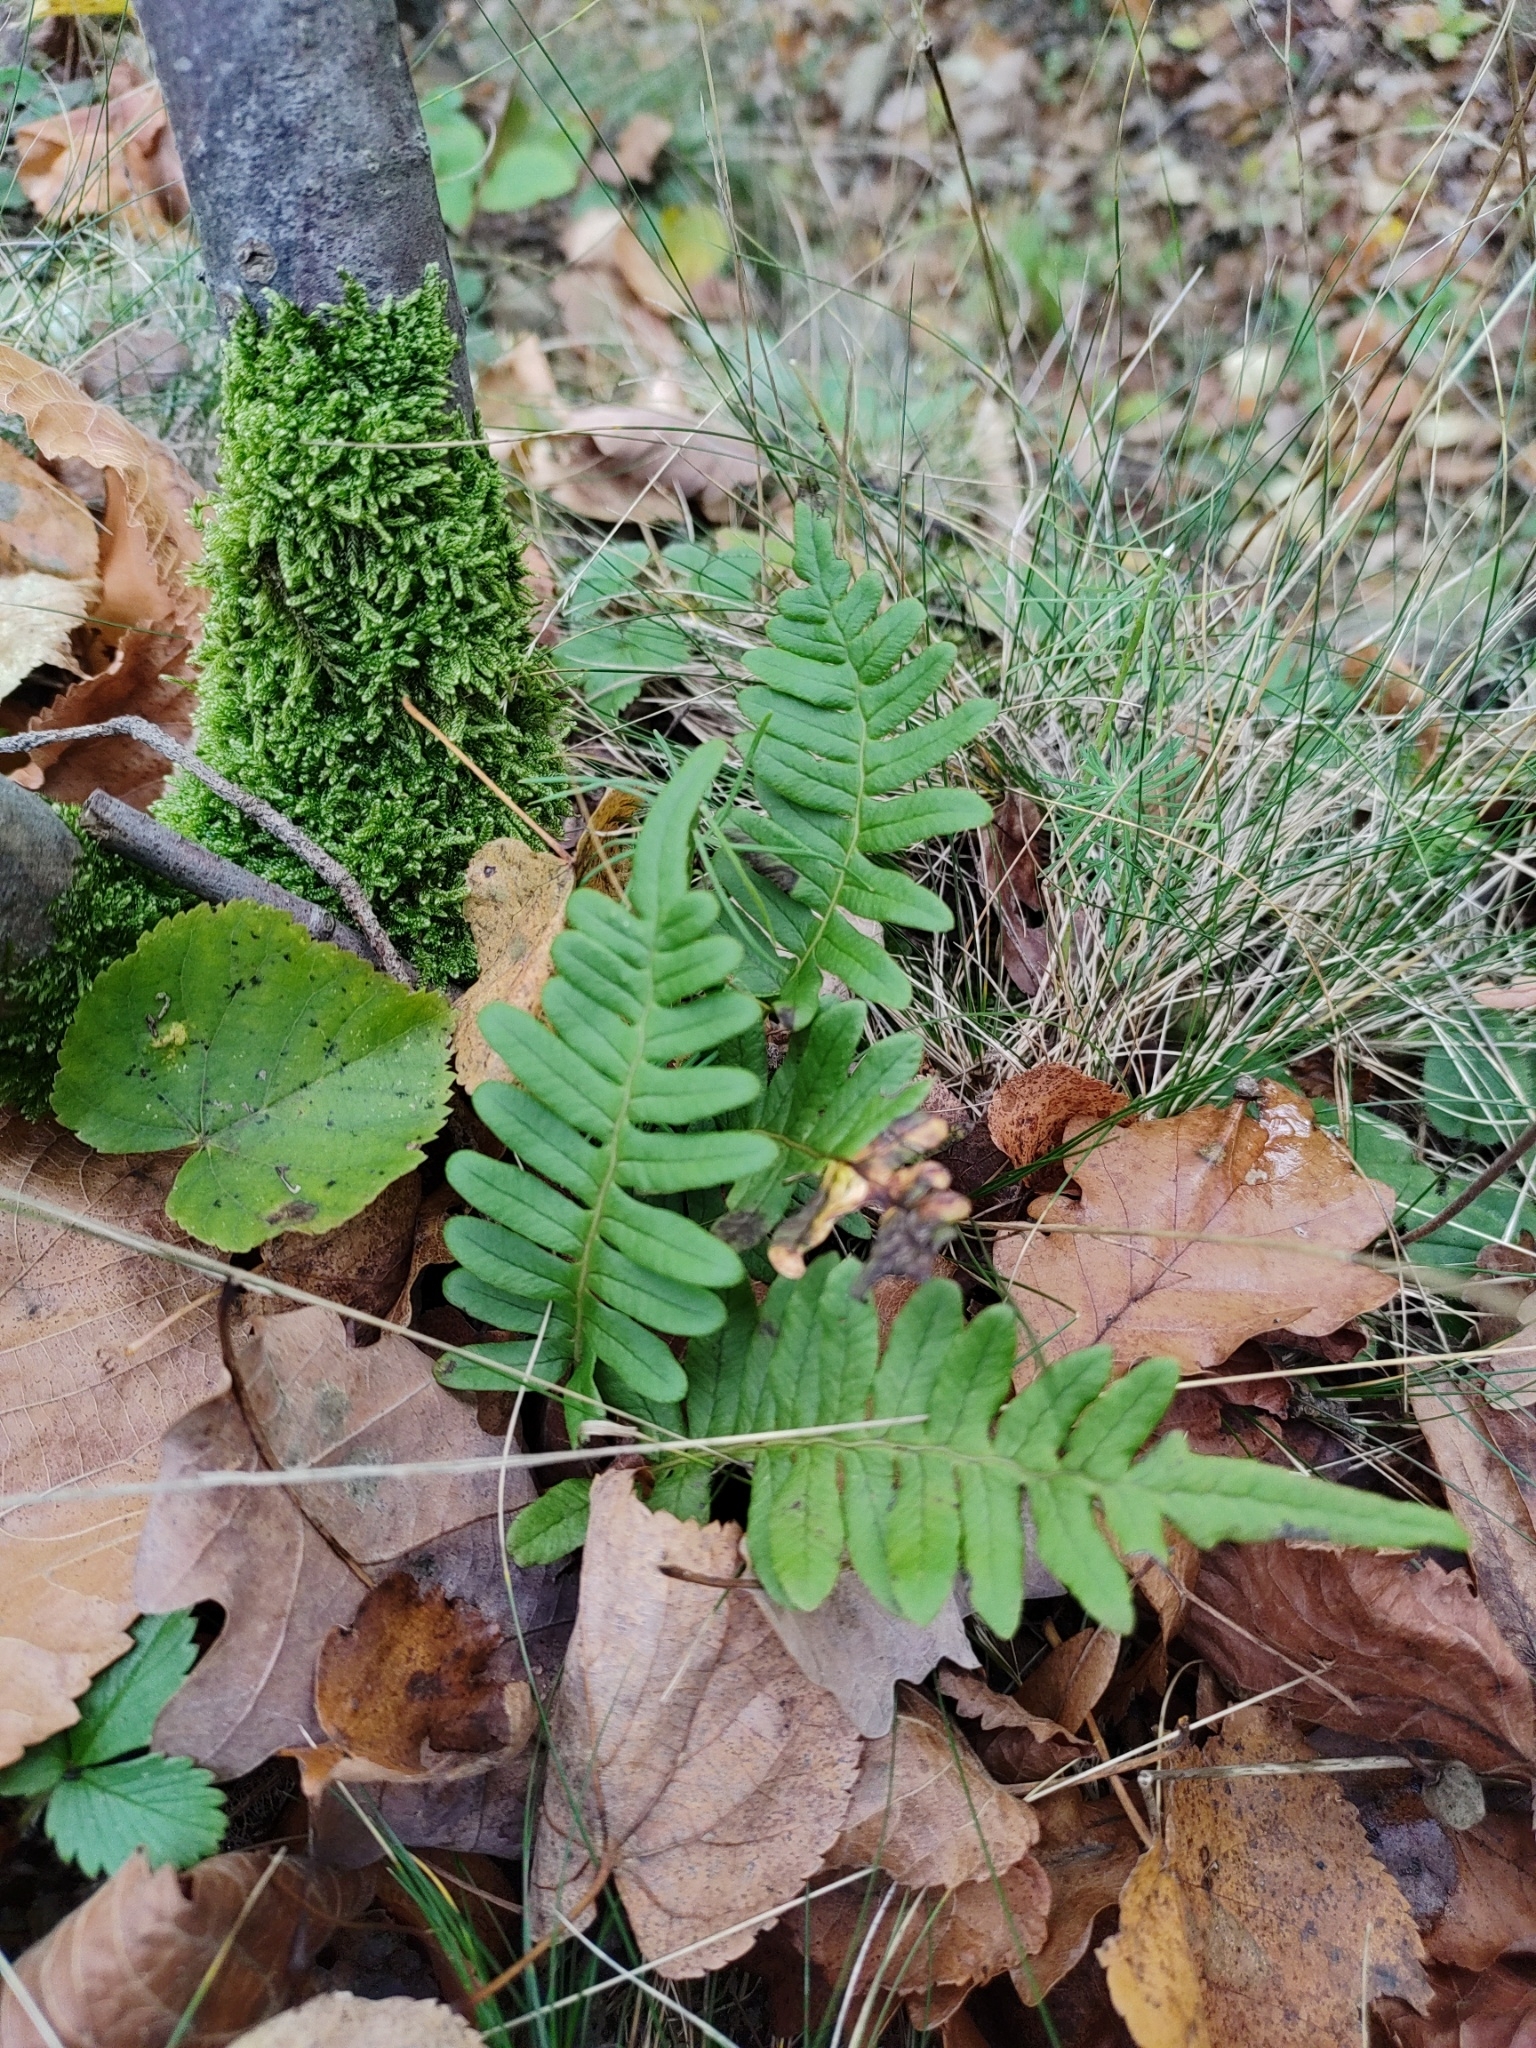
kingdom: Plantae
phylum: Tracheophyta
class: Polypodiopsida
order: Polypodiales
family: Polypodiaceae
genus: Polypodium
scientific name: Polypodium vulgare
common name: Common polypody
